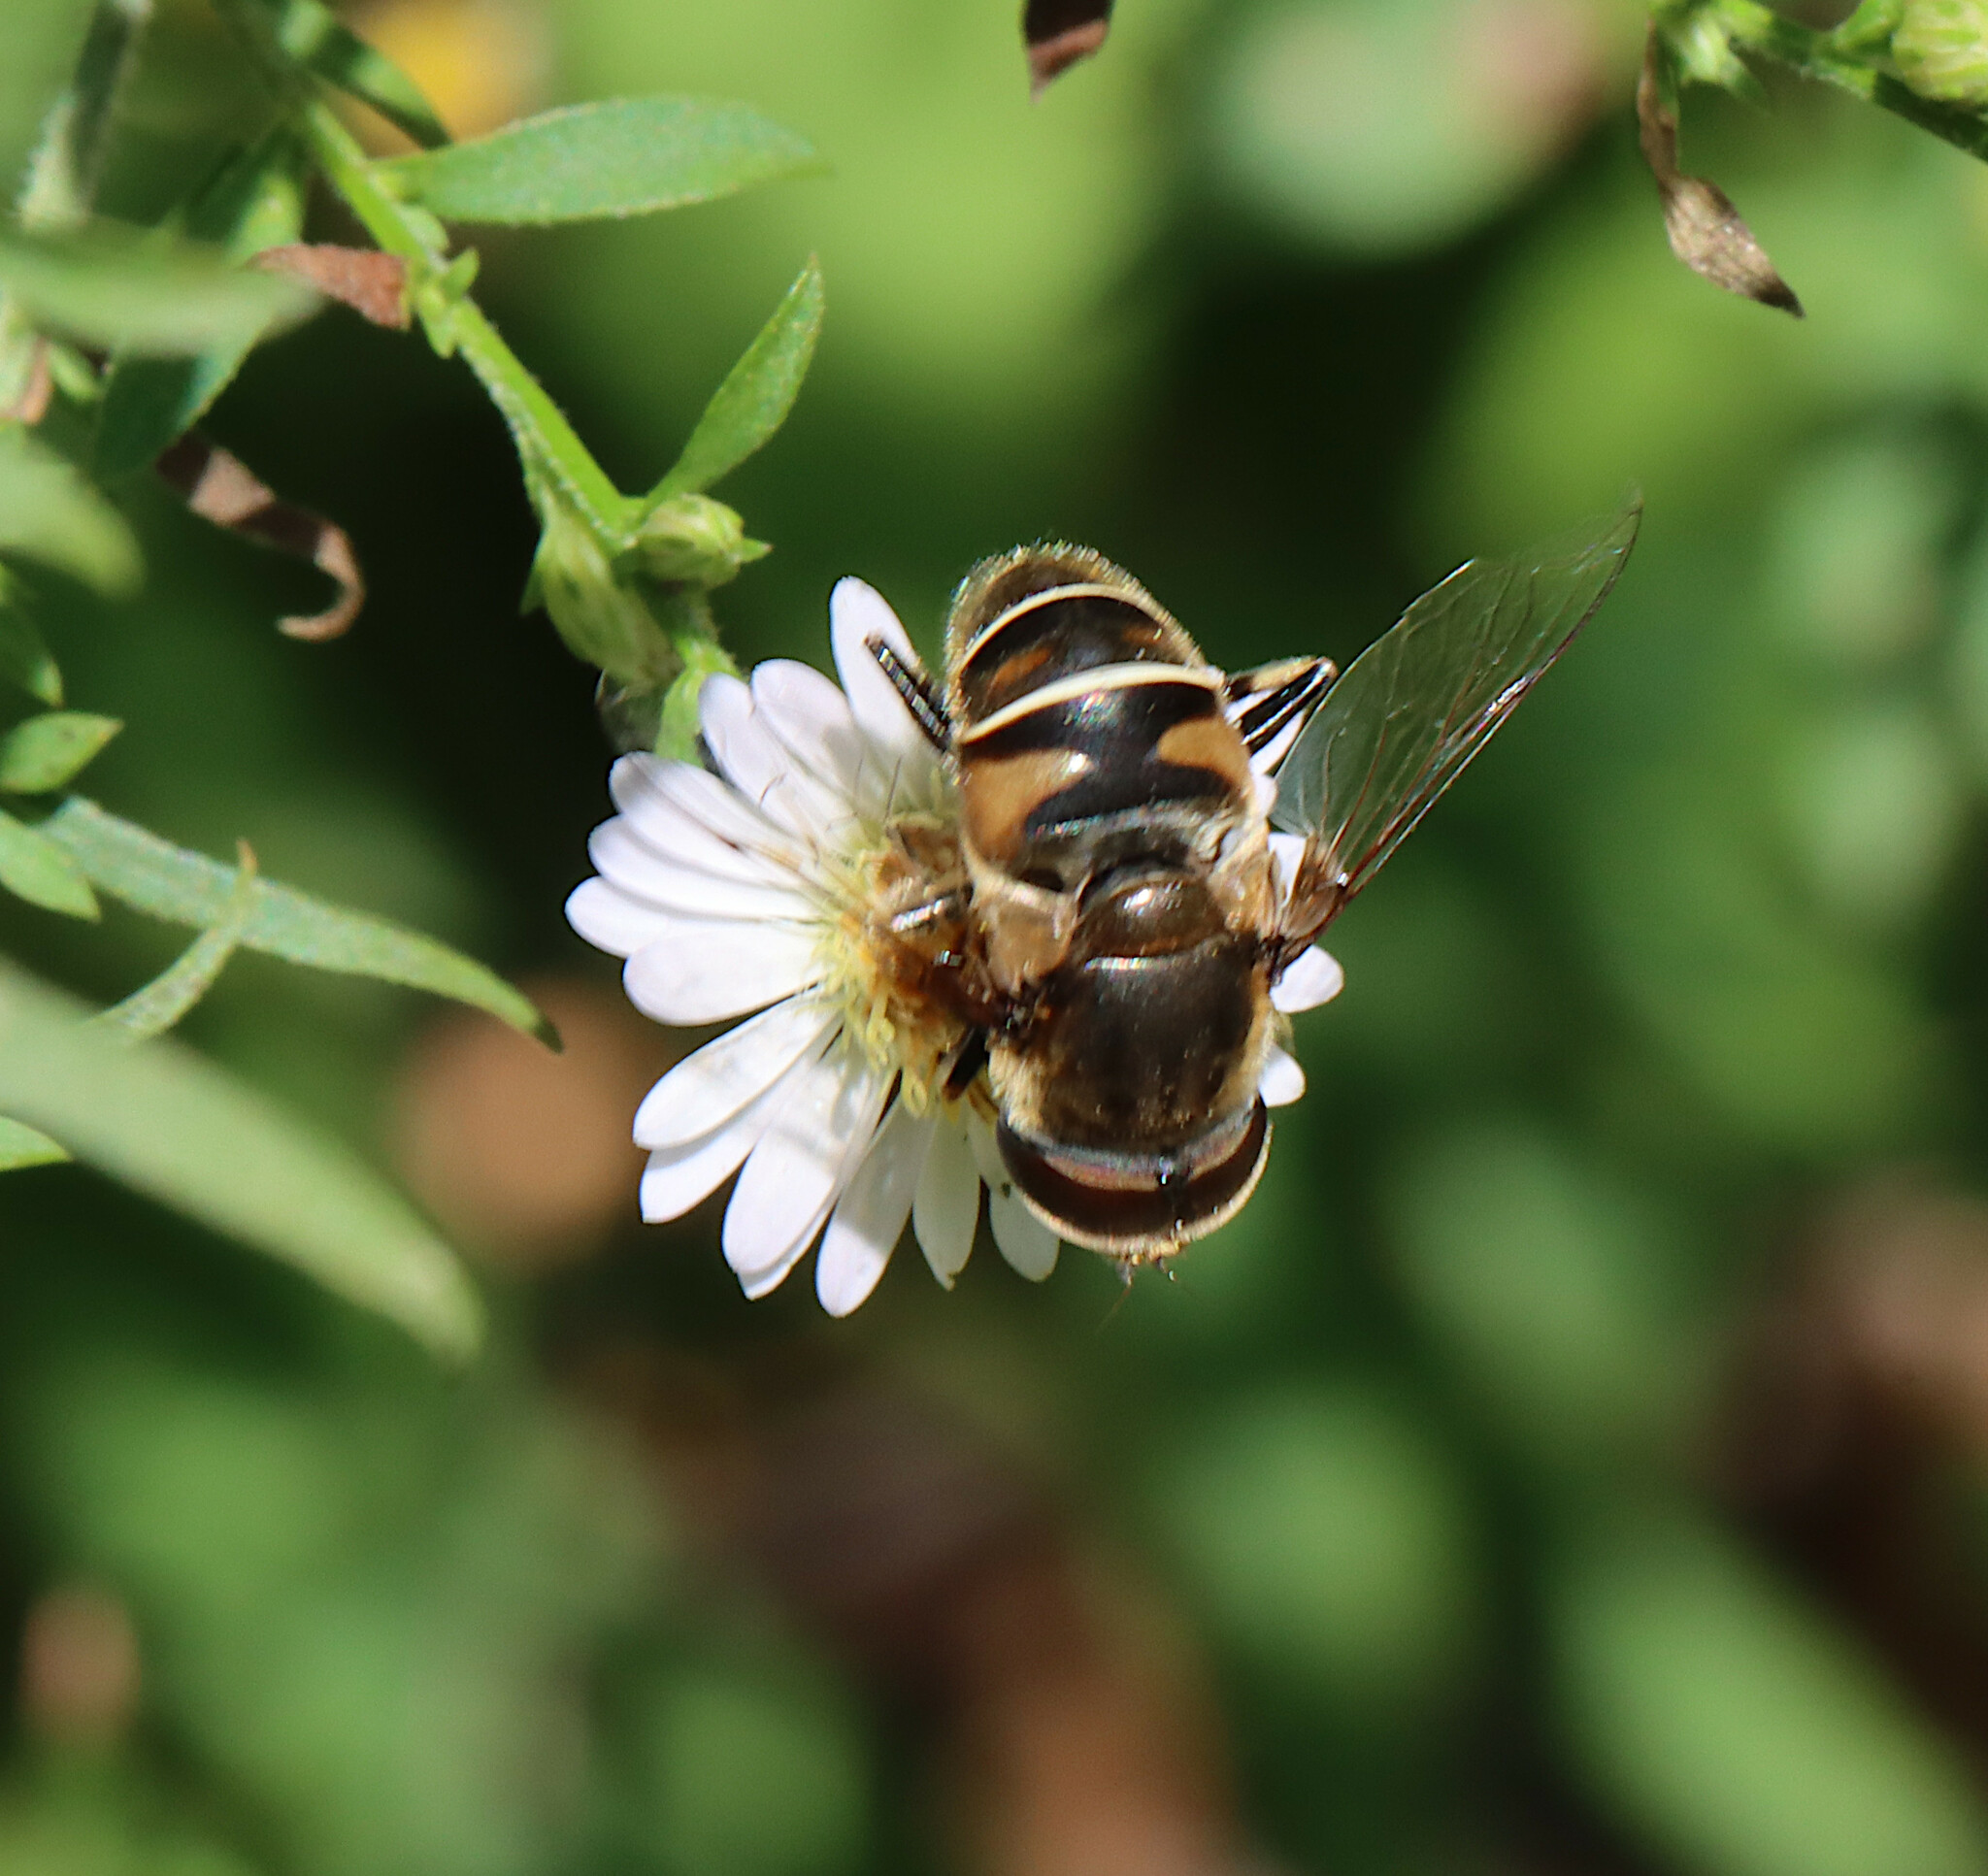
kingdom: Animalia
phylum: Arthropoda
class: Insecta
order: Diptera
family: Syrphidae
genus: Eristalis
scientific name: Eristalis dimidiata
